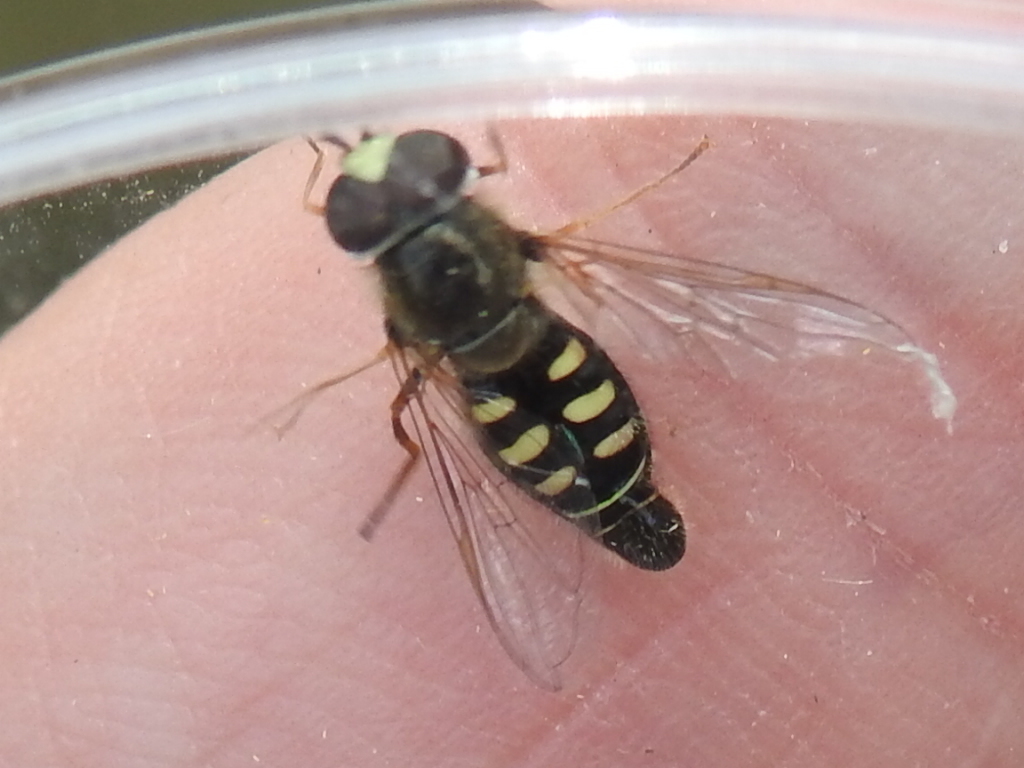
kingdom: Animalia
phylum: Arthropoda
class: Insecta
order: Diptera
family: Syrphidae
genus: Eupeodes
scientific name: Eupeodes volucris
